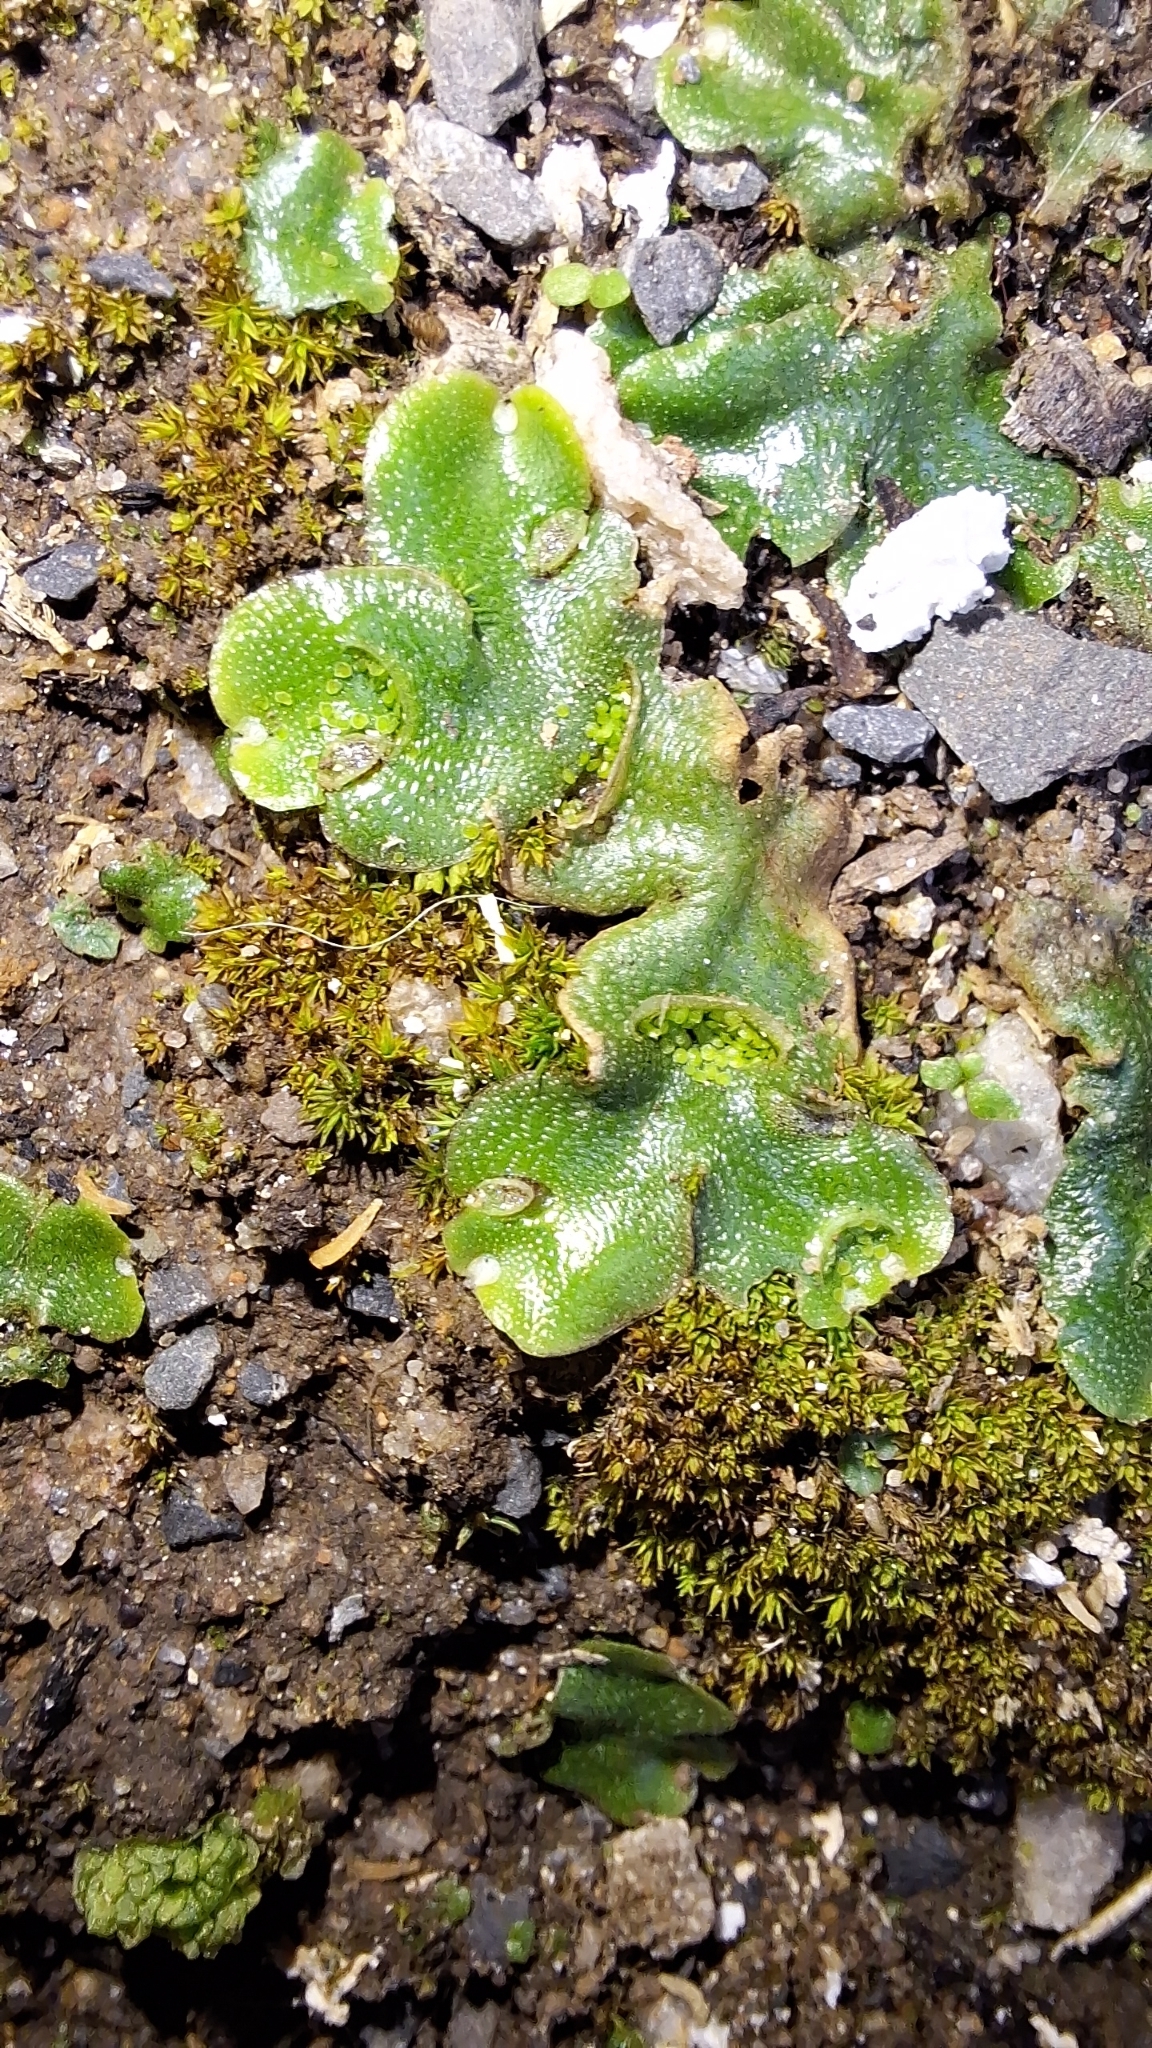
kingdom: Plantae
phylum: Marchantiophyta
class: Marchantiopsida
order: Lunulariales
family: Lunulariaceae
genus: Lunularia
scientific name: Lunularia cruciata
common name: Crescent-cup liverwort
